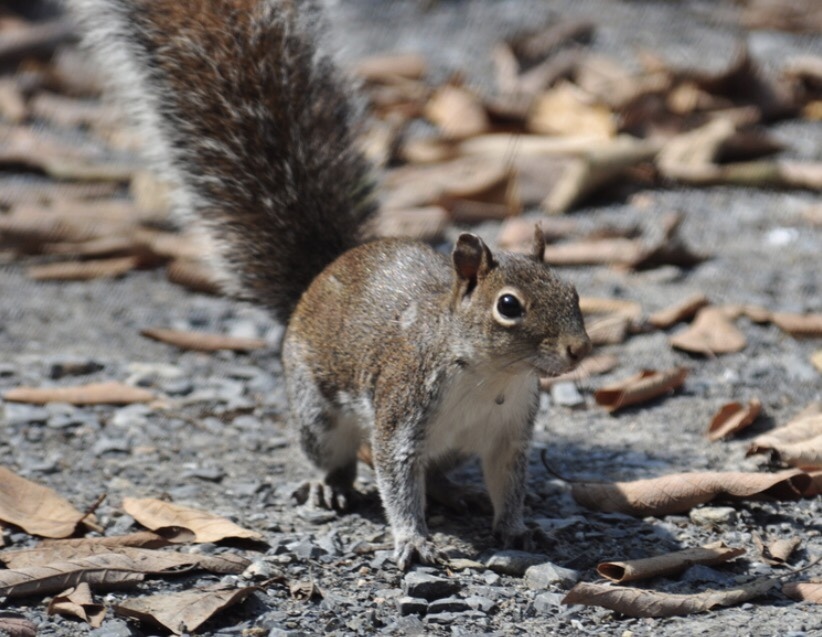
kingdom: Animalia
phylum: Chordata
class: Mammalia
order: Rodentia
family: Sciuridae
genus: Sciurus
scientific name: Sciurus alleni
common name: Allen's squirrel
